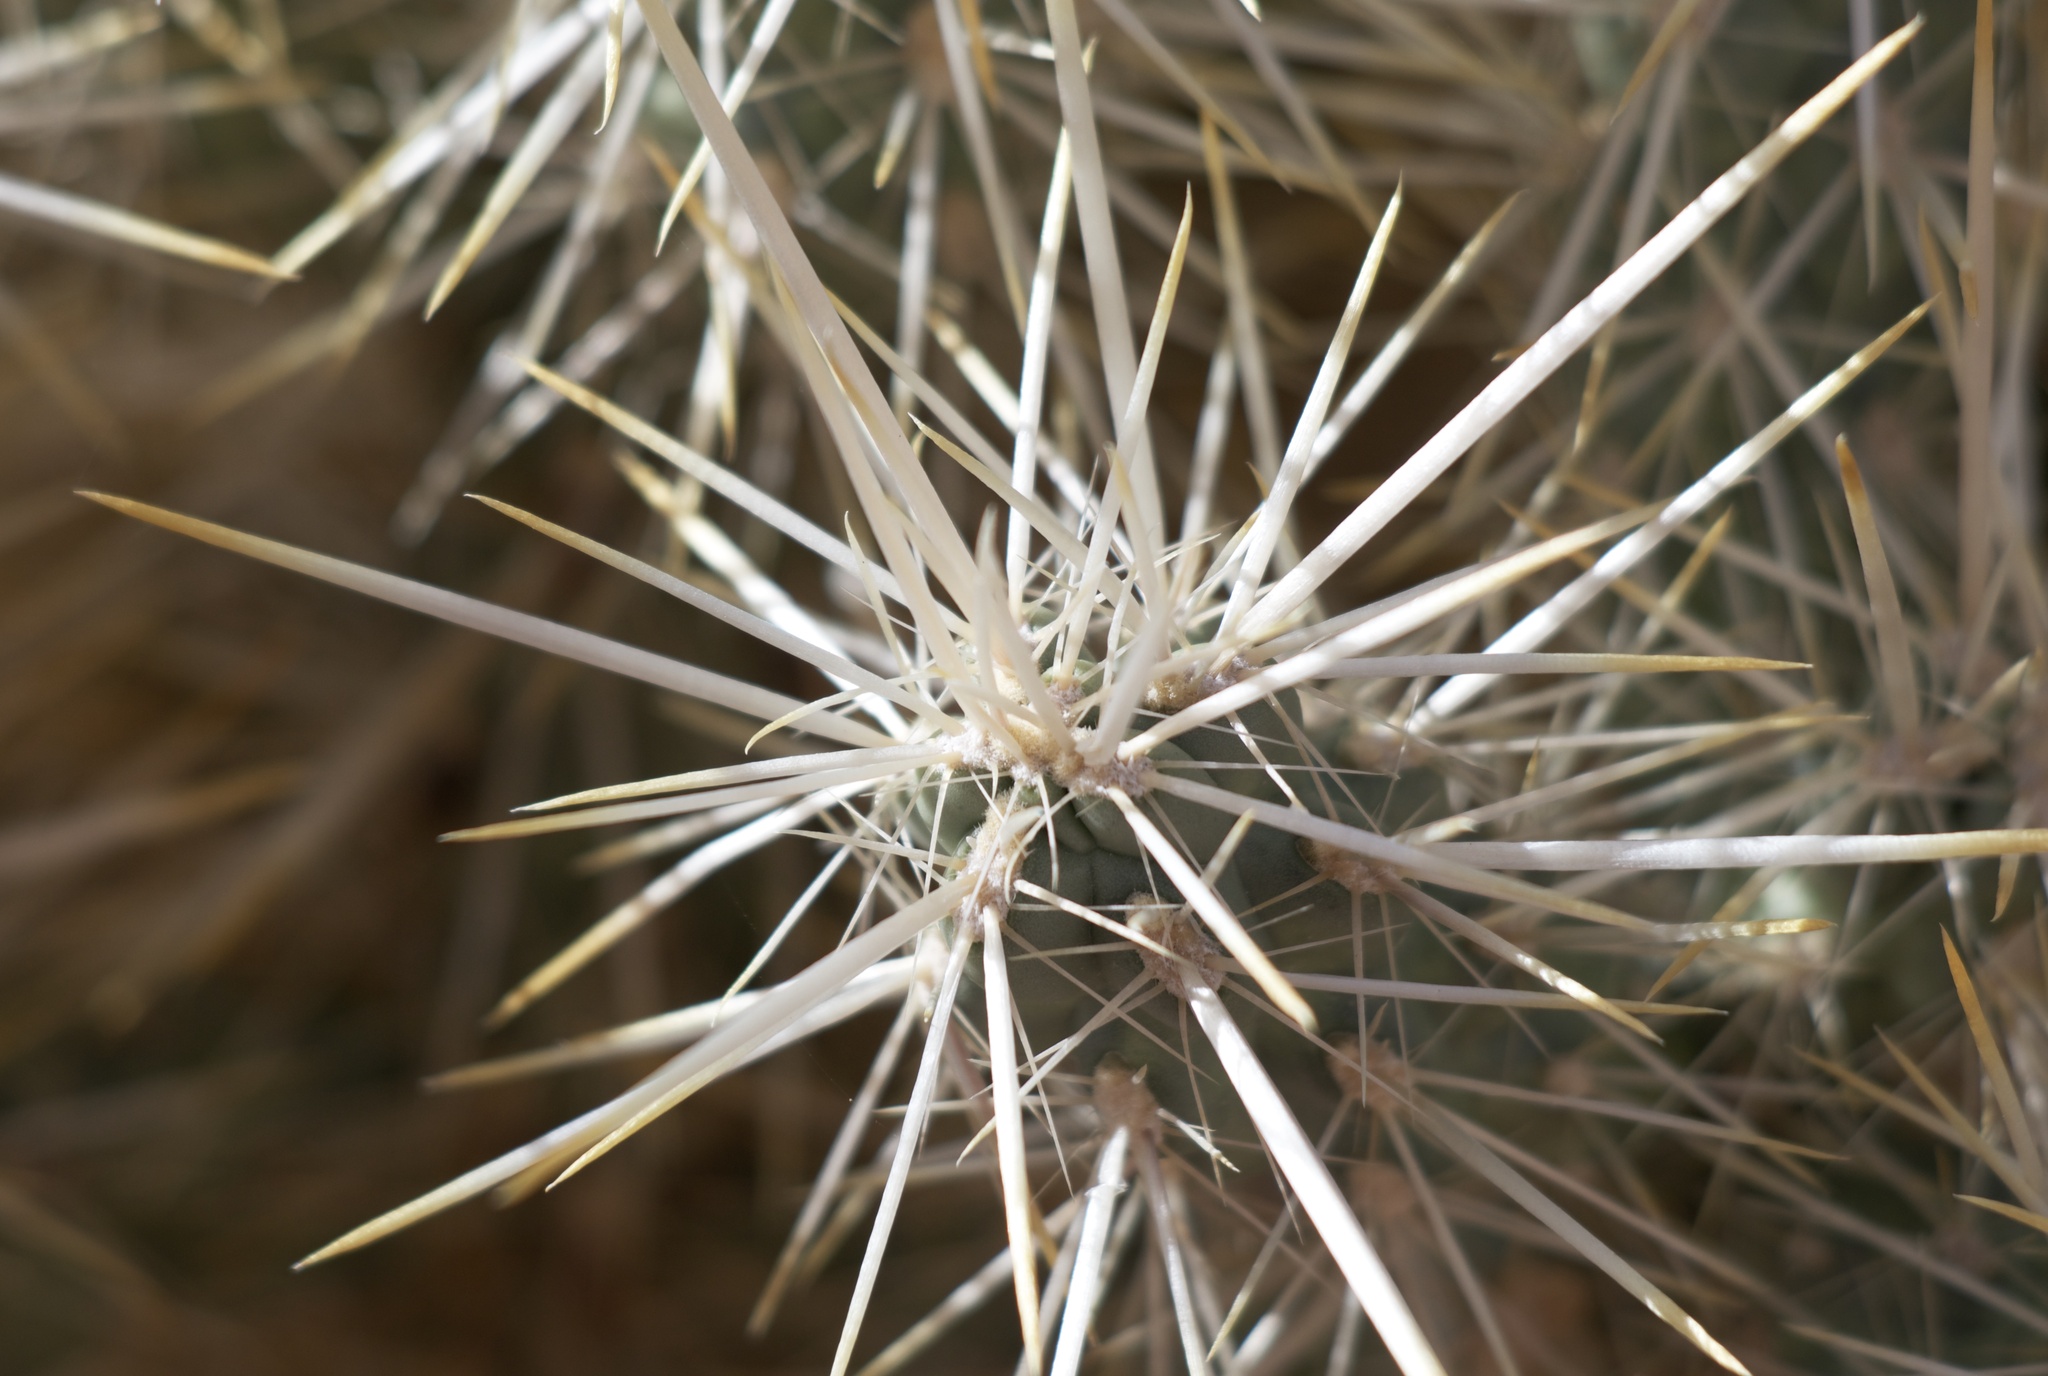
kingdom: Plantae
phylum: Tracheophyta
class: Magnoliopsida
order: Caryophyllales
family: Cactaceae
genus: Cylindropuntia
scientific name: Cylindropuntia echinocarpa
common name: Ground cholla
